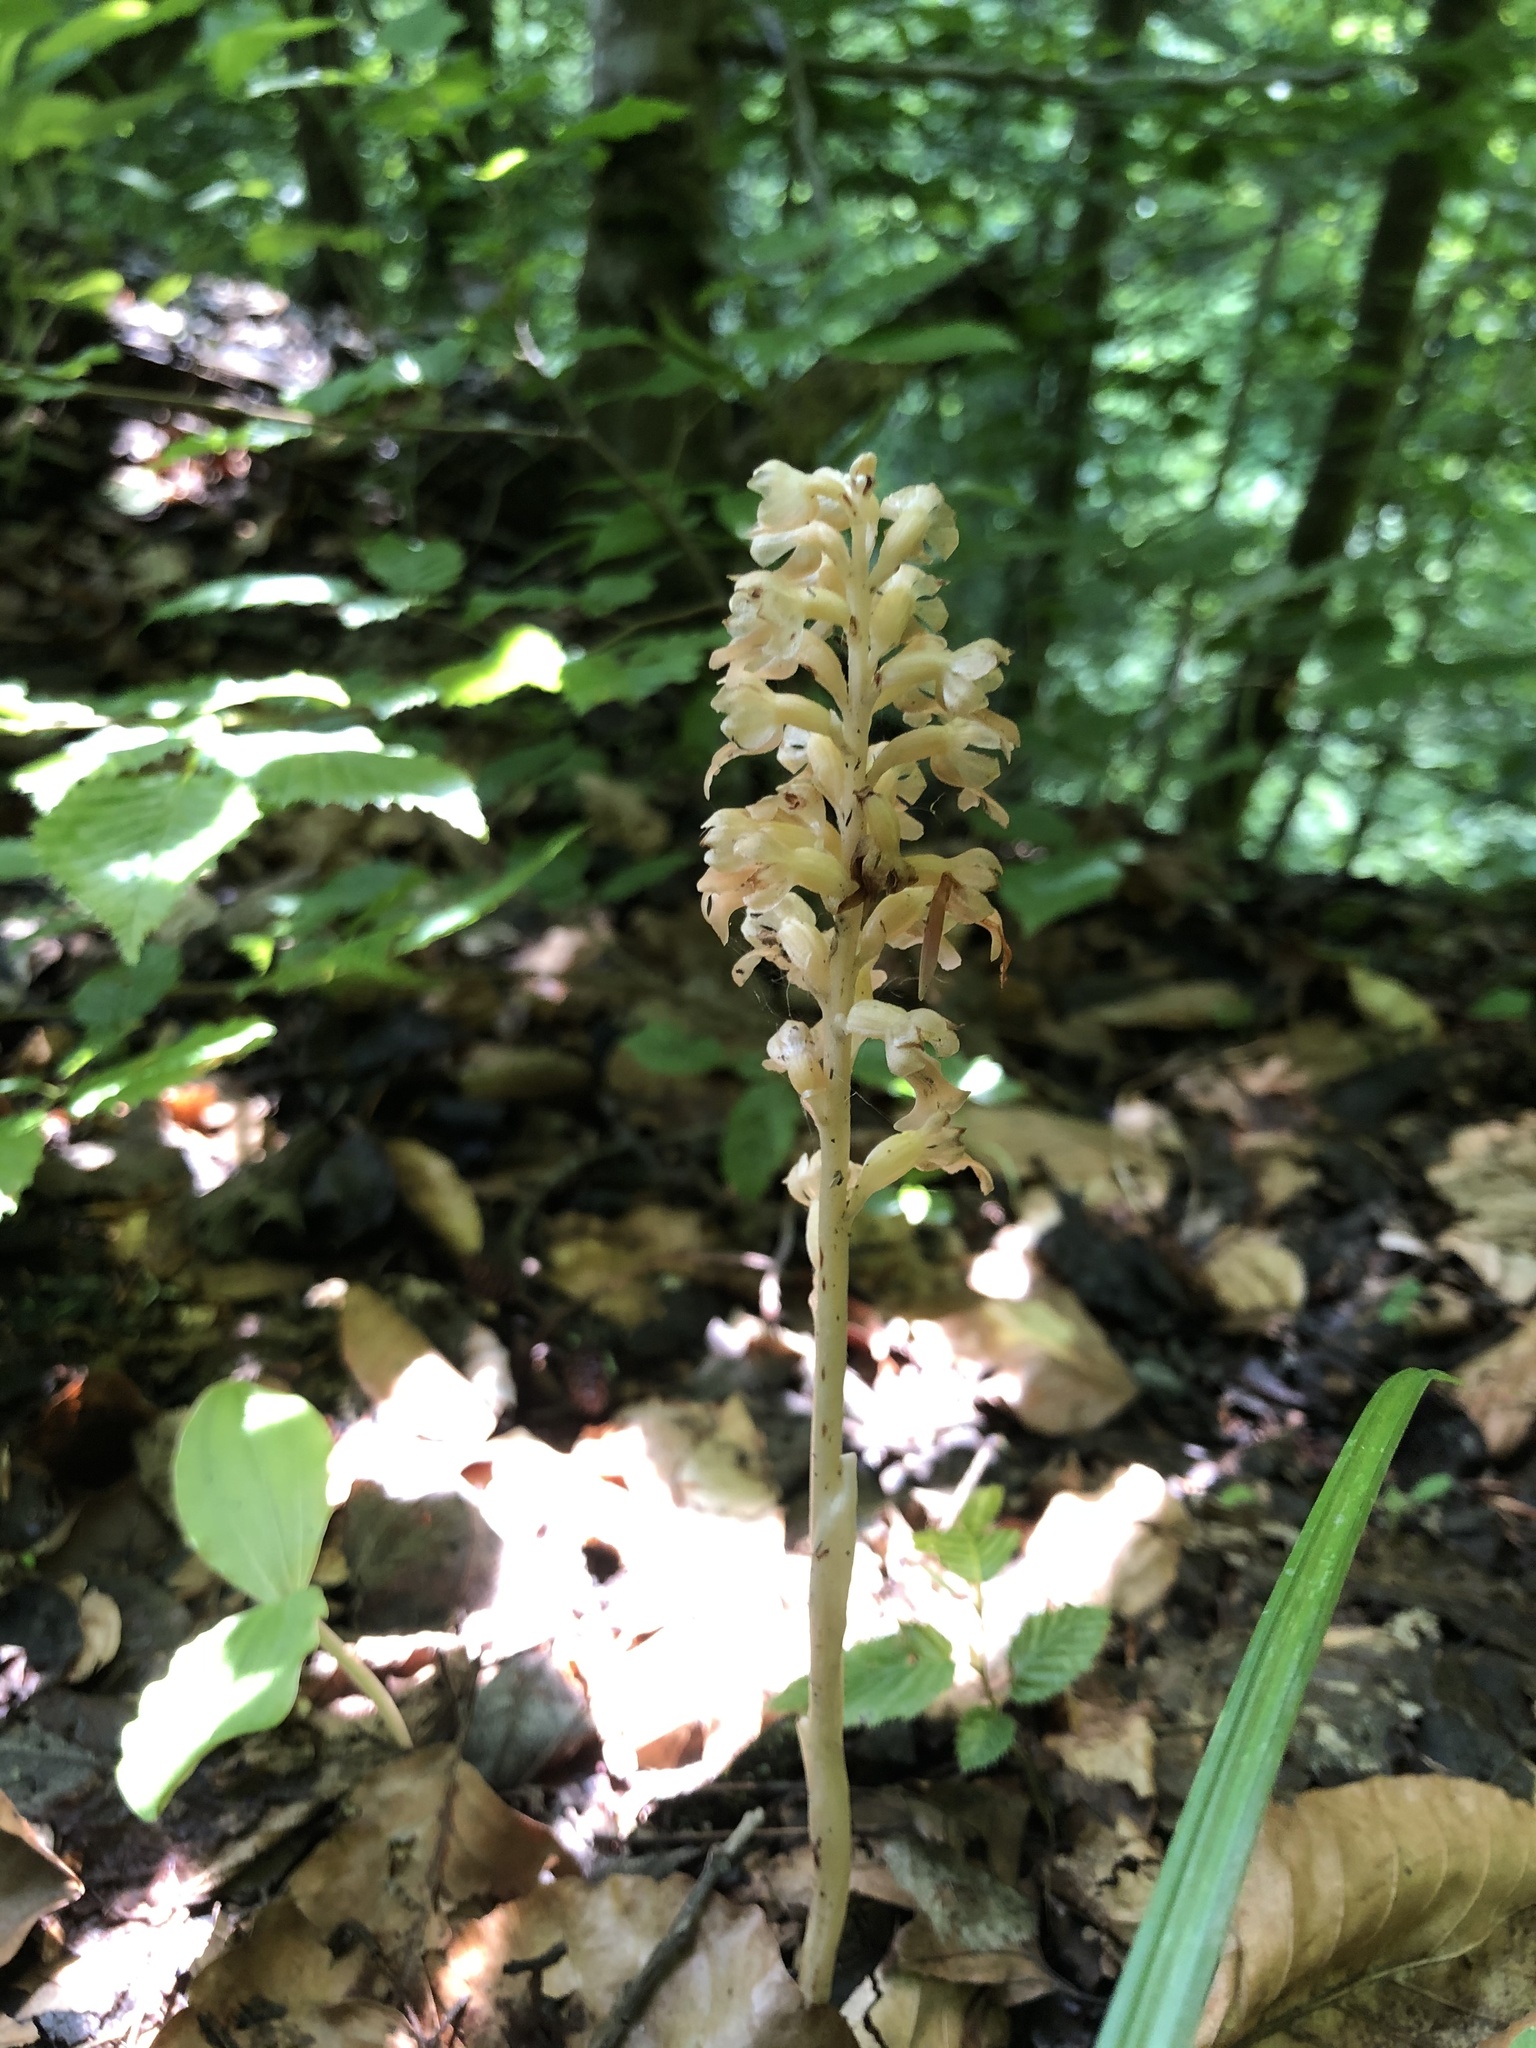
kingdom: Plantae
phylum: Tracheophyta
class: Liliopsida
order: Asparagales
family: Orchidaceae
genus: Neottia
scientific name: Neottia nidus-avis
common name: Bird's-nest orchid
